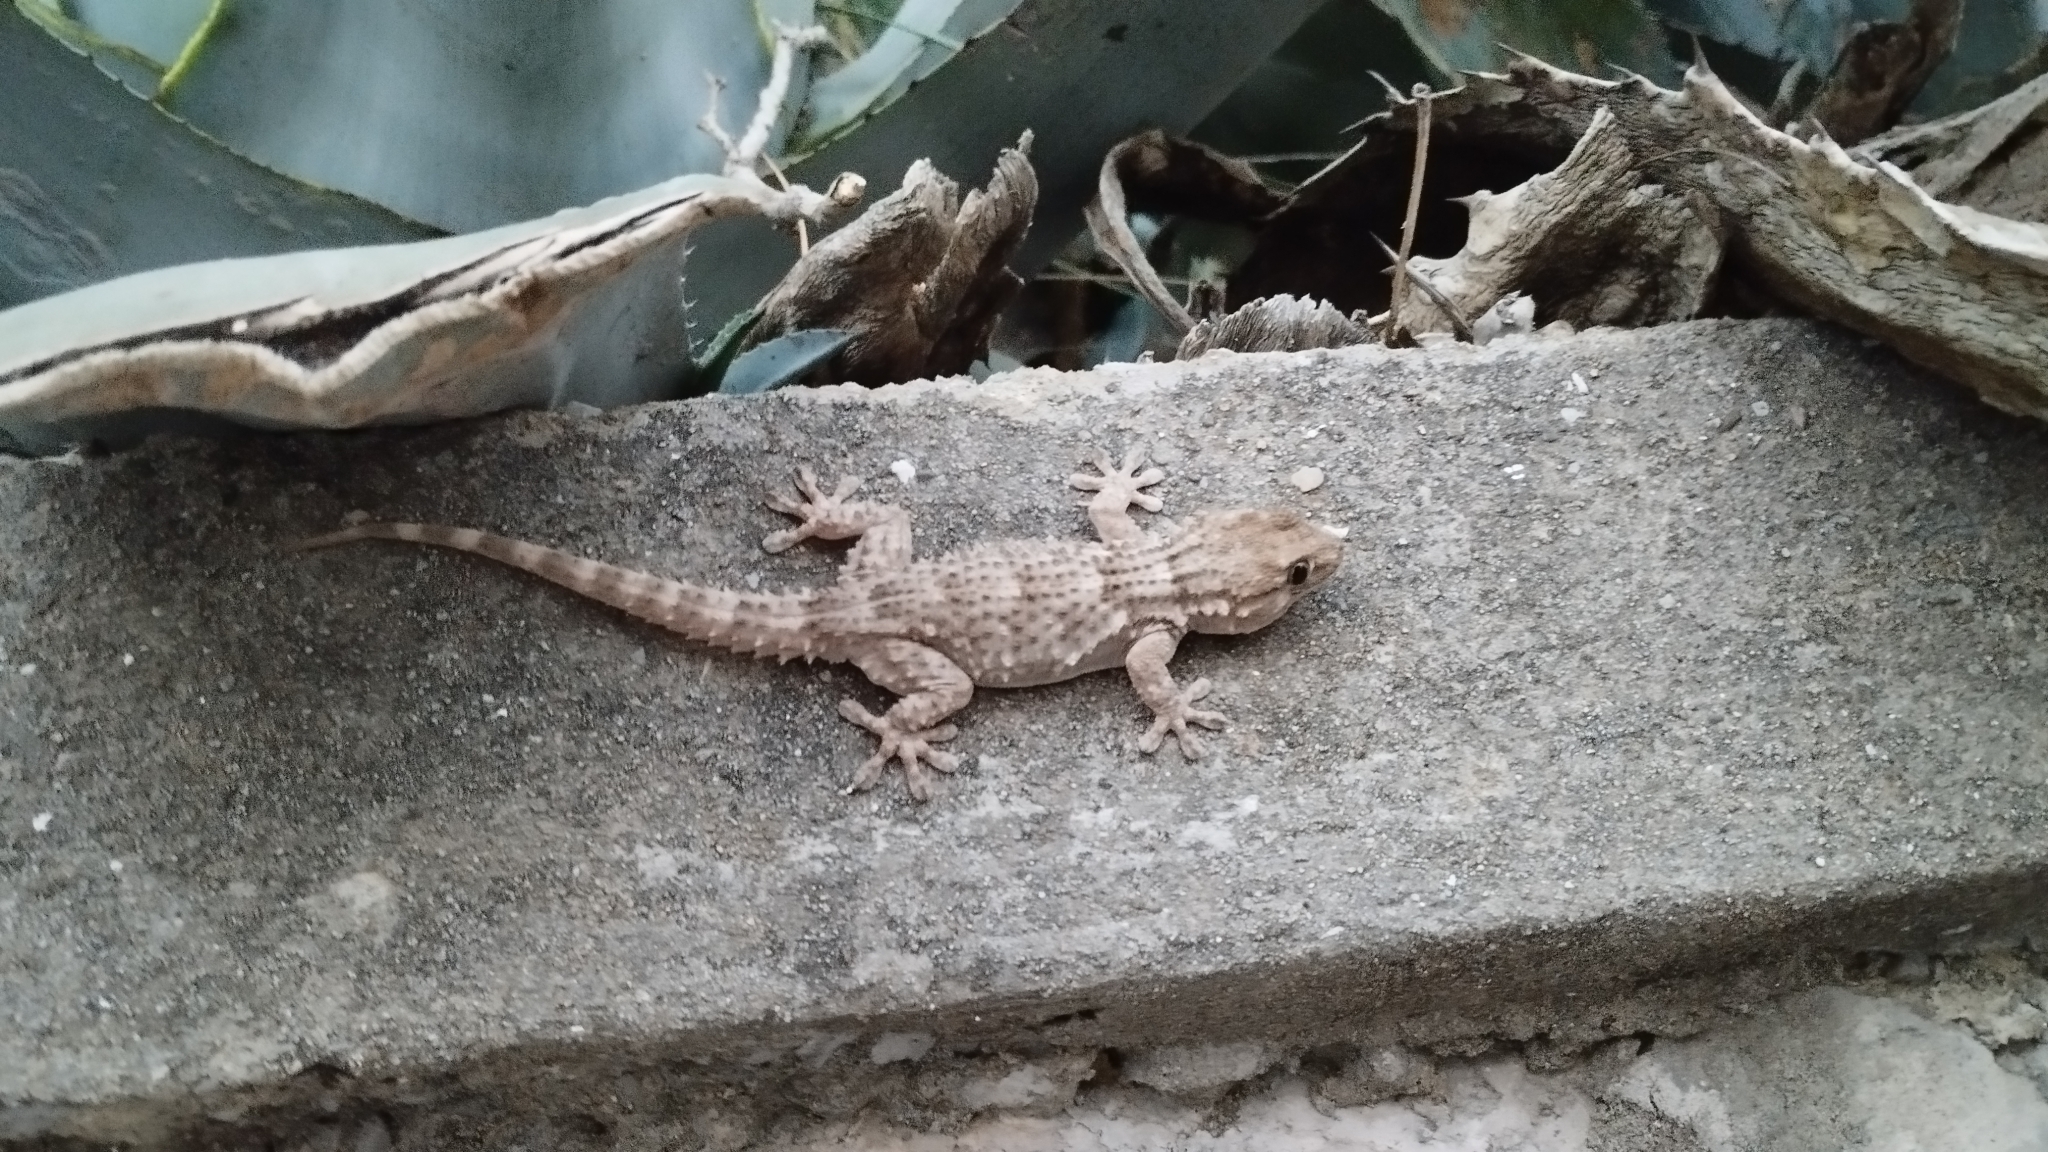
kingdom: Animalia
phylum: Chordata
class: Squamata
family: Phyllodactylidae
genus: Tarentola
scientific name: Tarentola mauritanica
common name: Moorish gecko
